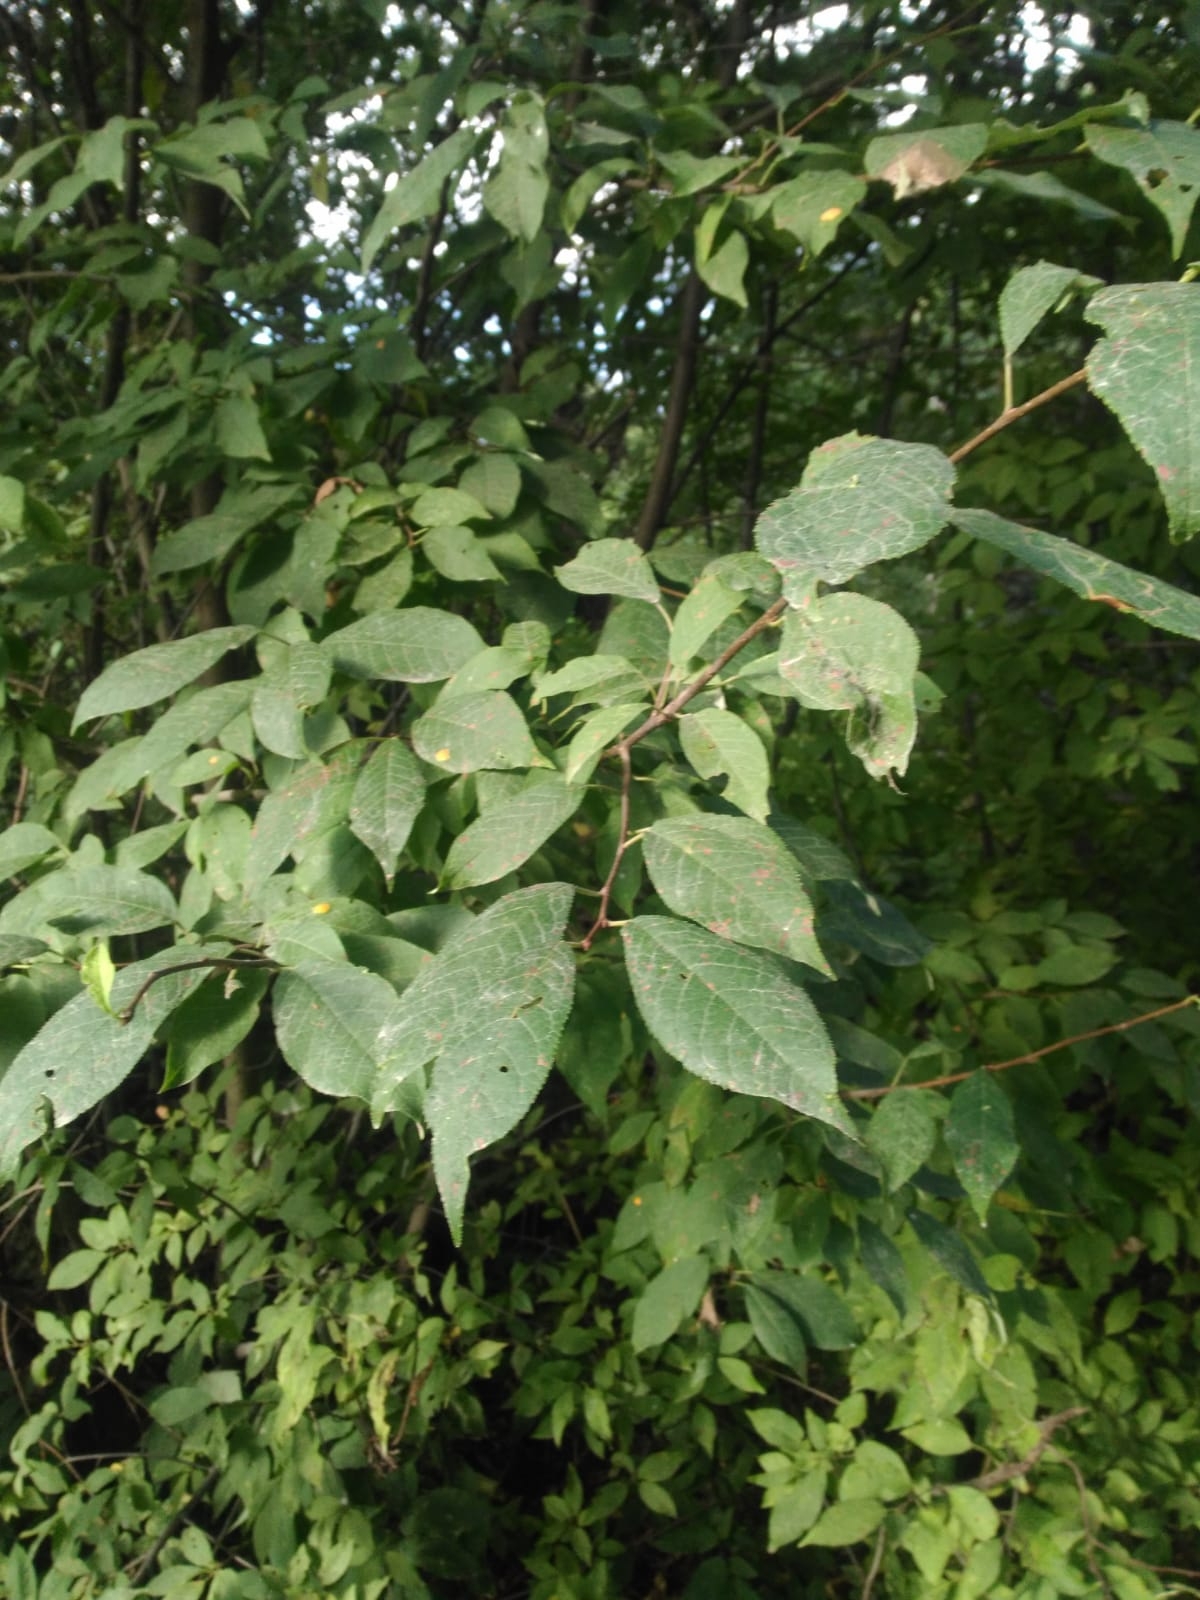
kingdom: Plantae
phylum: Tracheophyta
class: Magnoliopsida
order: Rosales
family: Rosaceae
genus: Prunus
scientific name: Prunus padus
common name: Bird cherry
